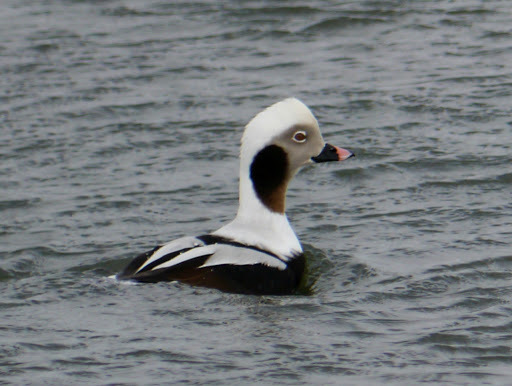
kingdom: Animalia
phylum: Chordata
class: Aves
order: Anseriformes
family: Anatidae
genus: Clangula
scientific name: Clangula hyemalis
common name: Long-tailed duck
